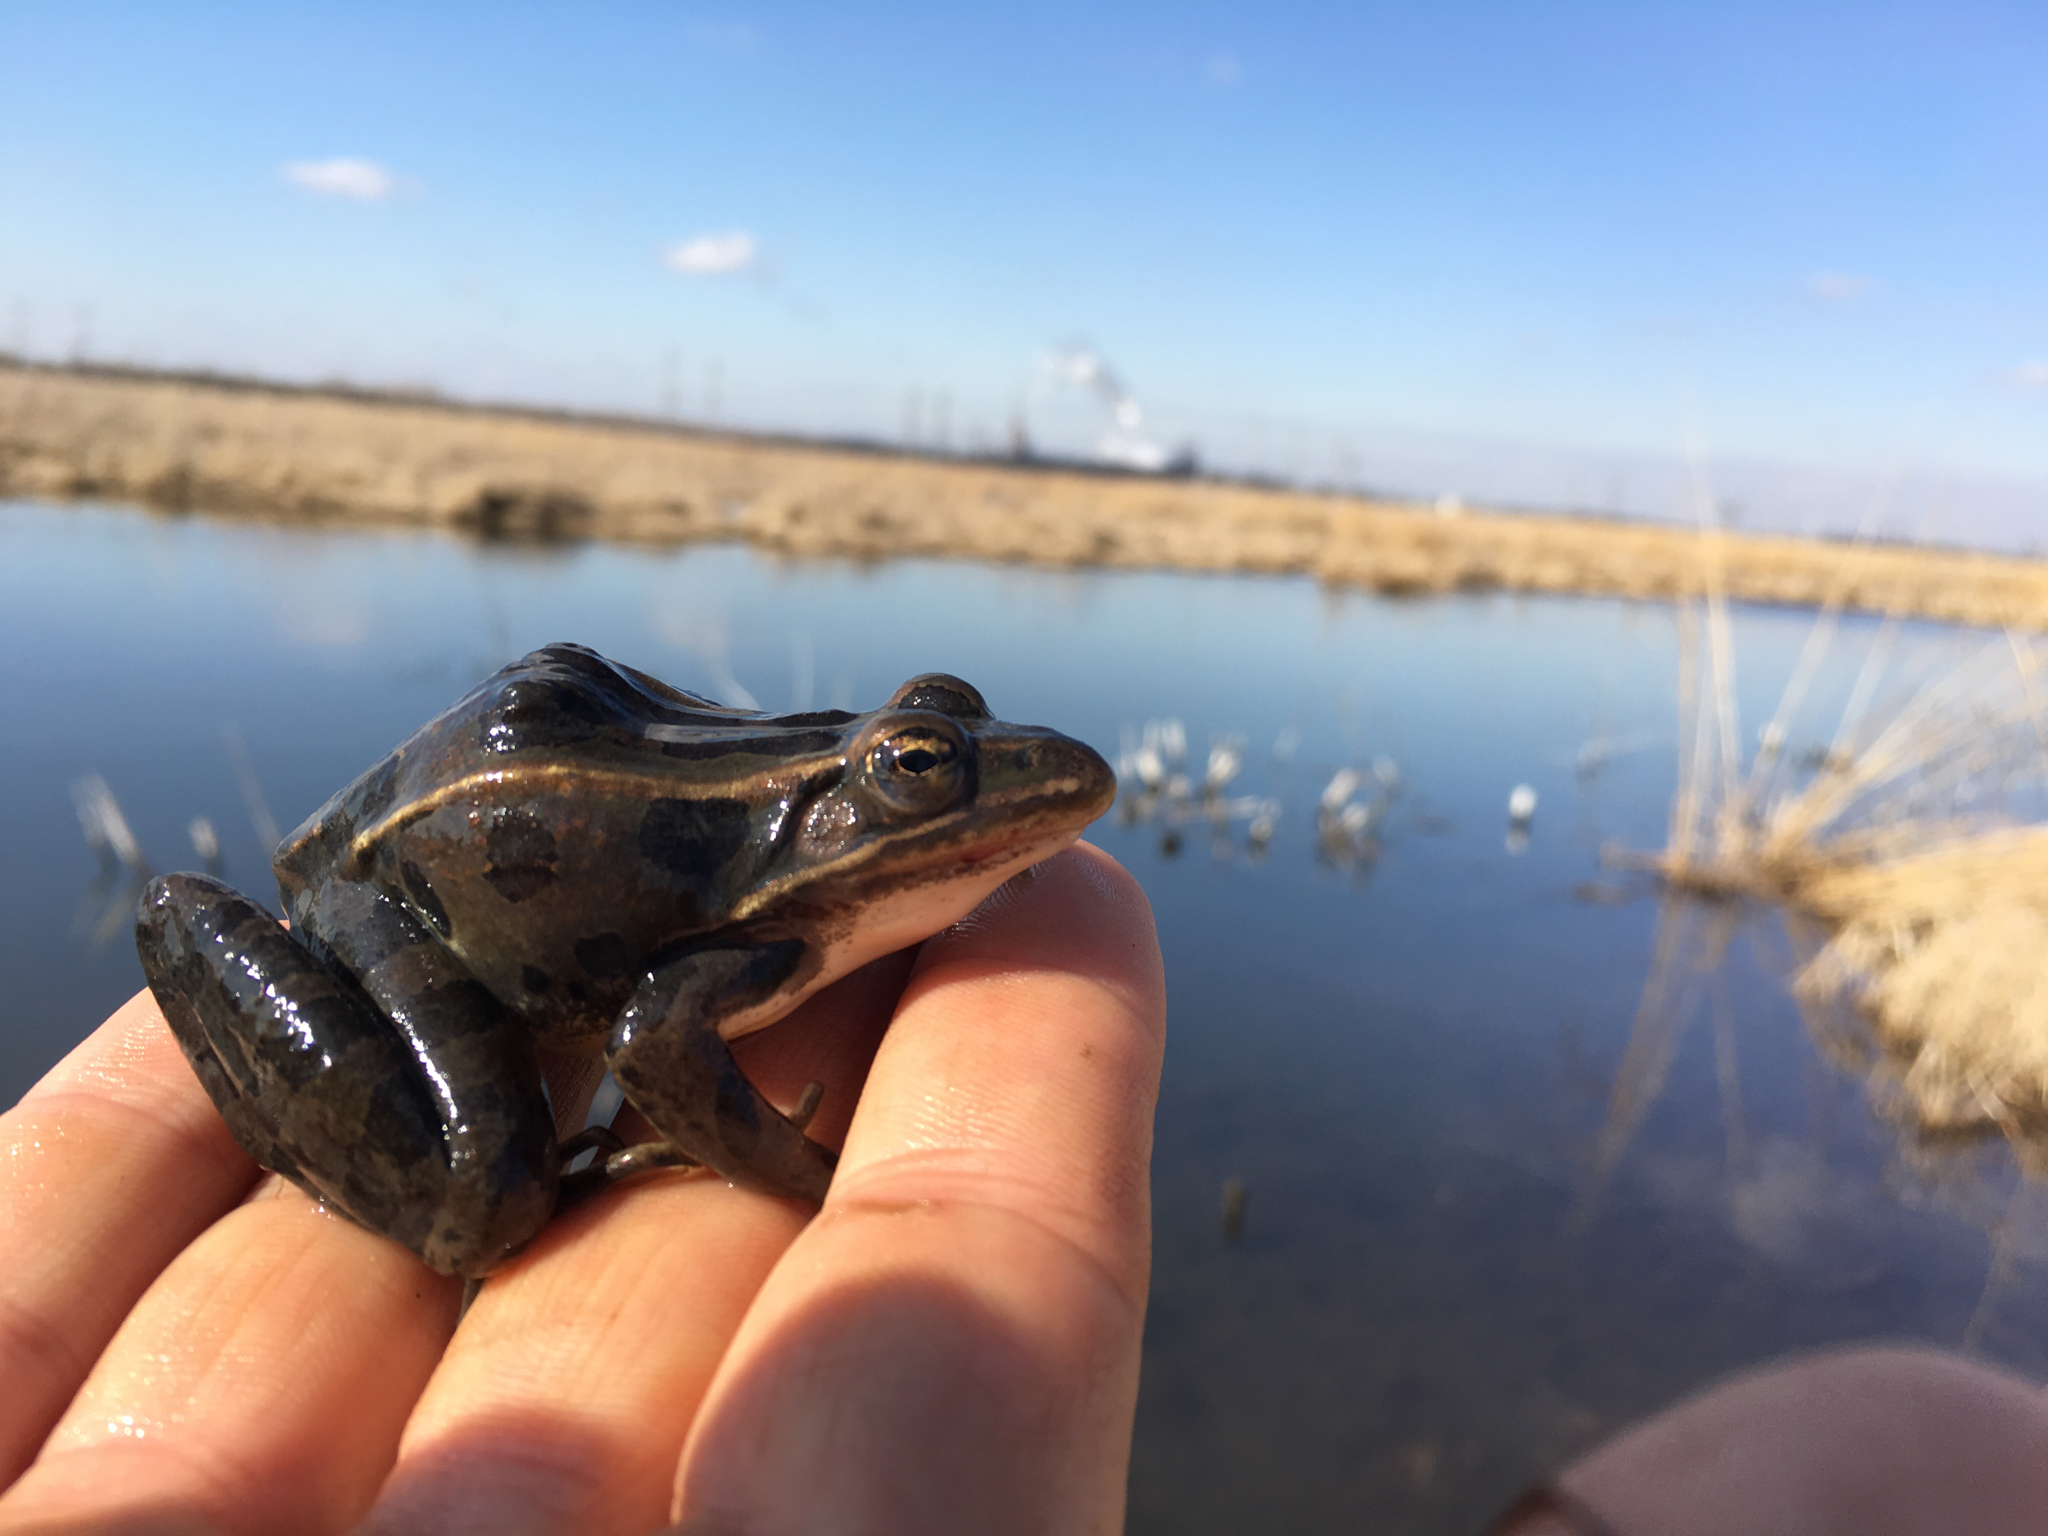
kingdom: Animalia
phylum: Chordata
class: Amphibia
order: Anura
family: Ranidae
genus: Lithobates
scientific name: Lithobates pipiens
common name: Northern leopard frog
